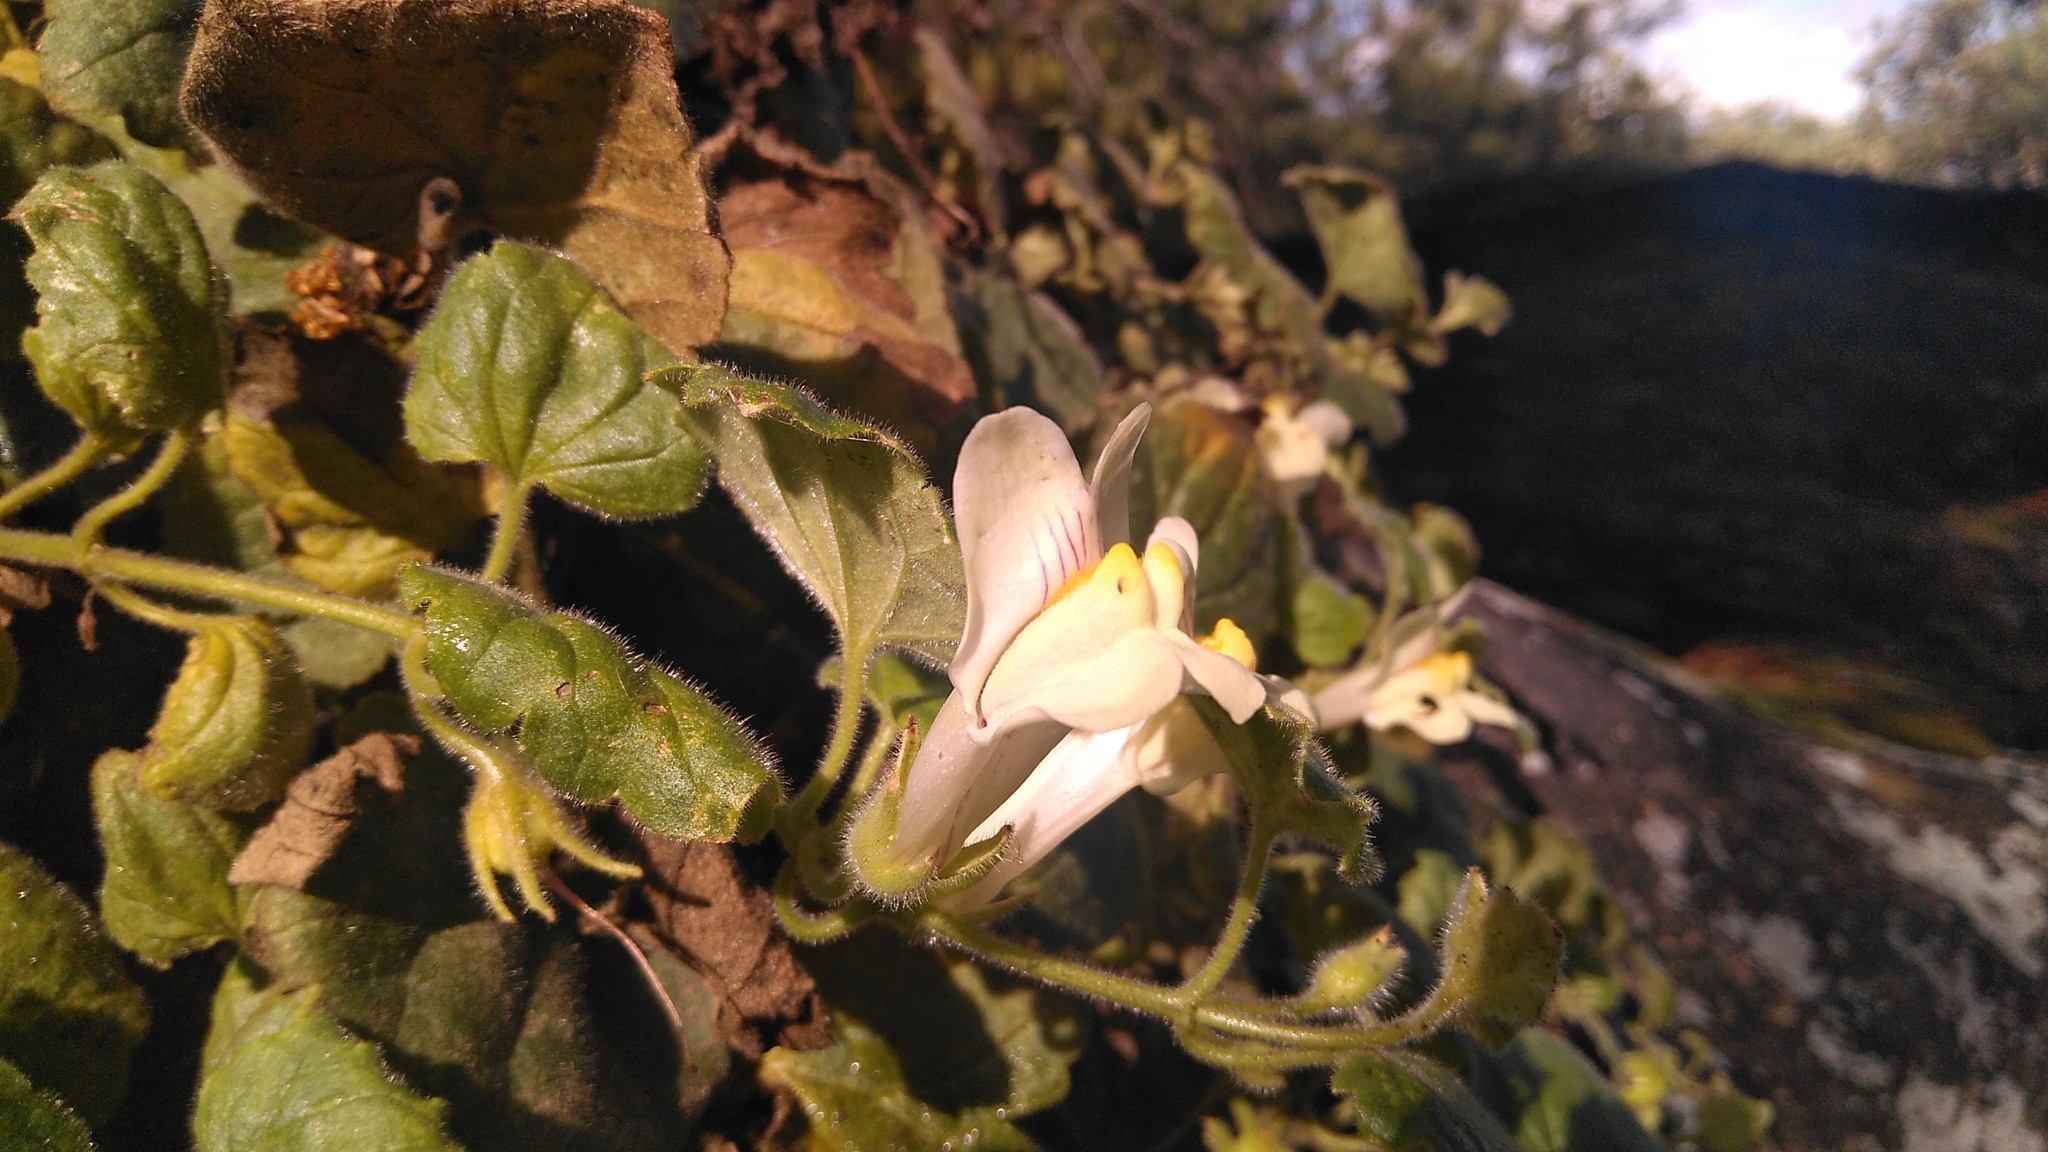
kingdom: Plantae
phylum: Tracheophyta
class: Magnoliopsida
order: Lamiales
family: Plantaginaceae
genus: Asarina
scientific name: Asarina procumbens
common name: Trailing snapdragon
